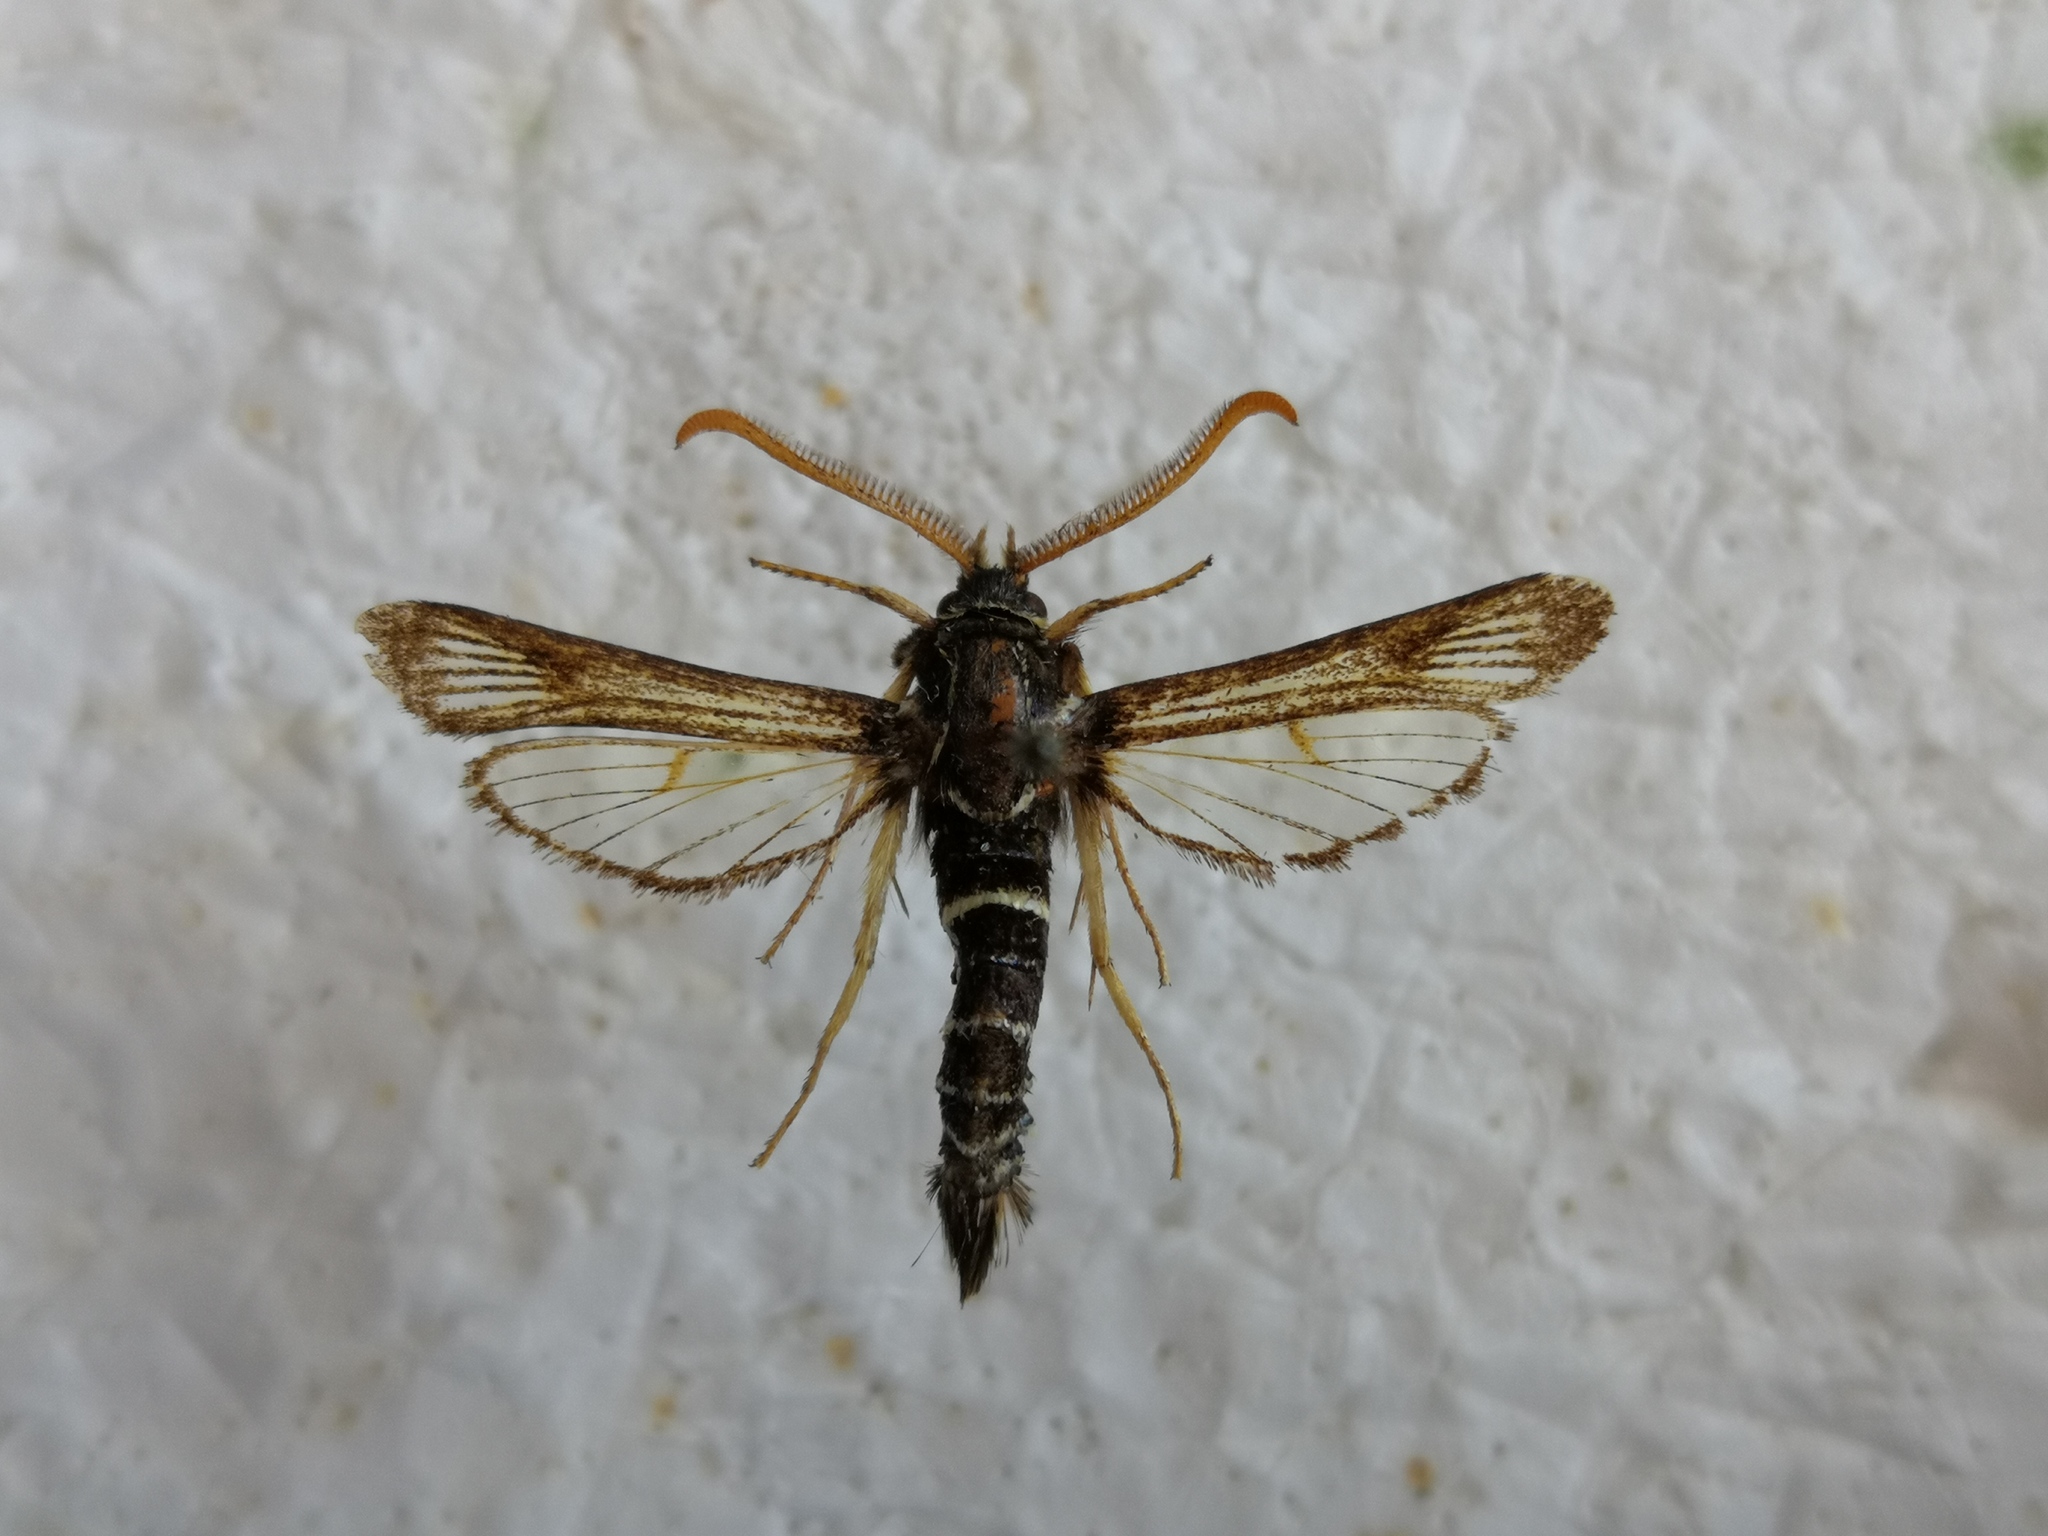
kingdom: Animalia
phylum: Arthropoda
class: Insecta
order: Lepidoptera
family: Sesiidae
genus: Paranthrene
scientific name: Paranthrene insolitus
